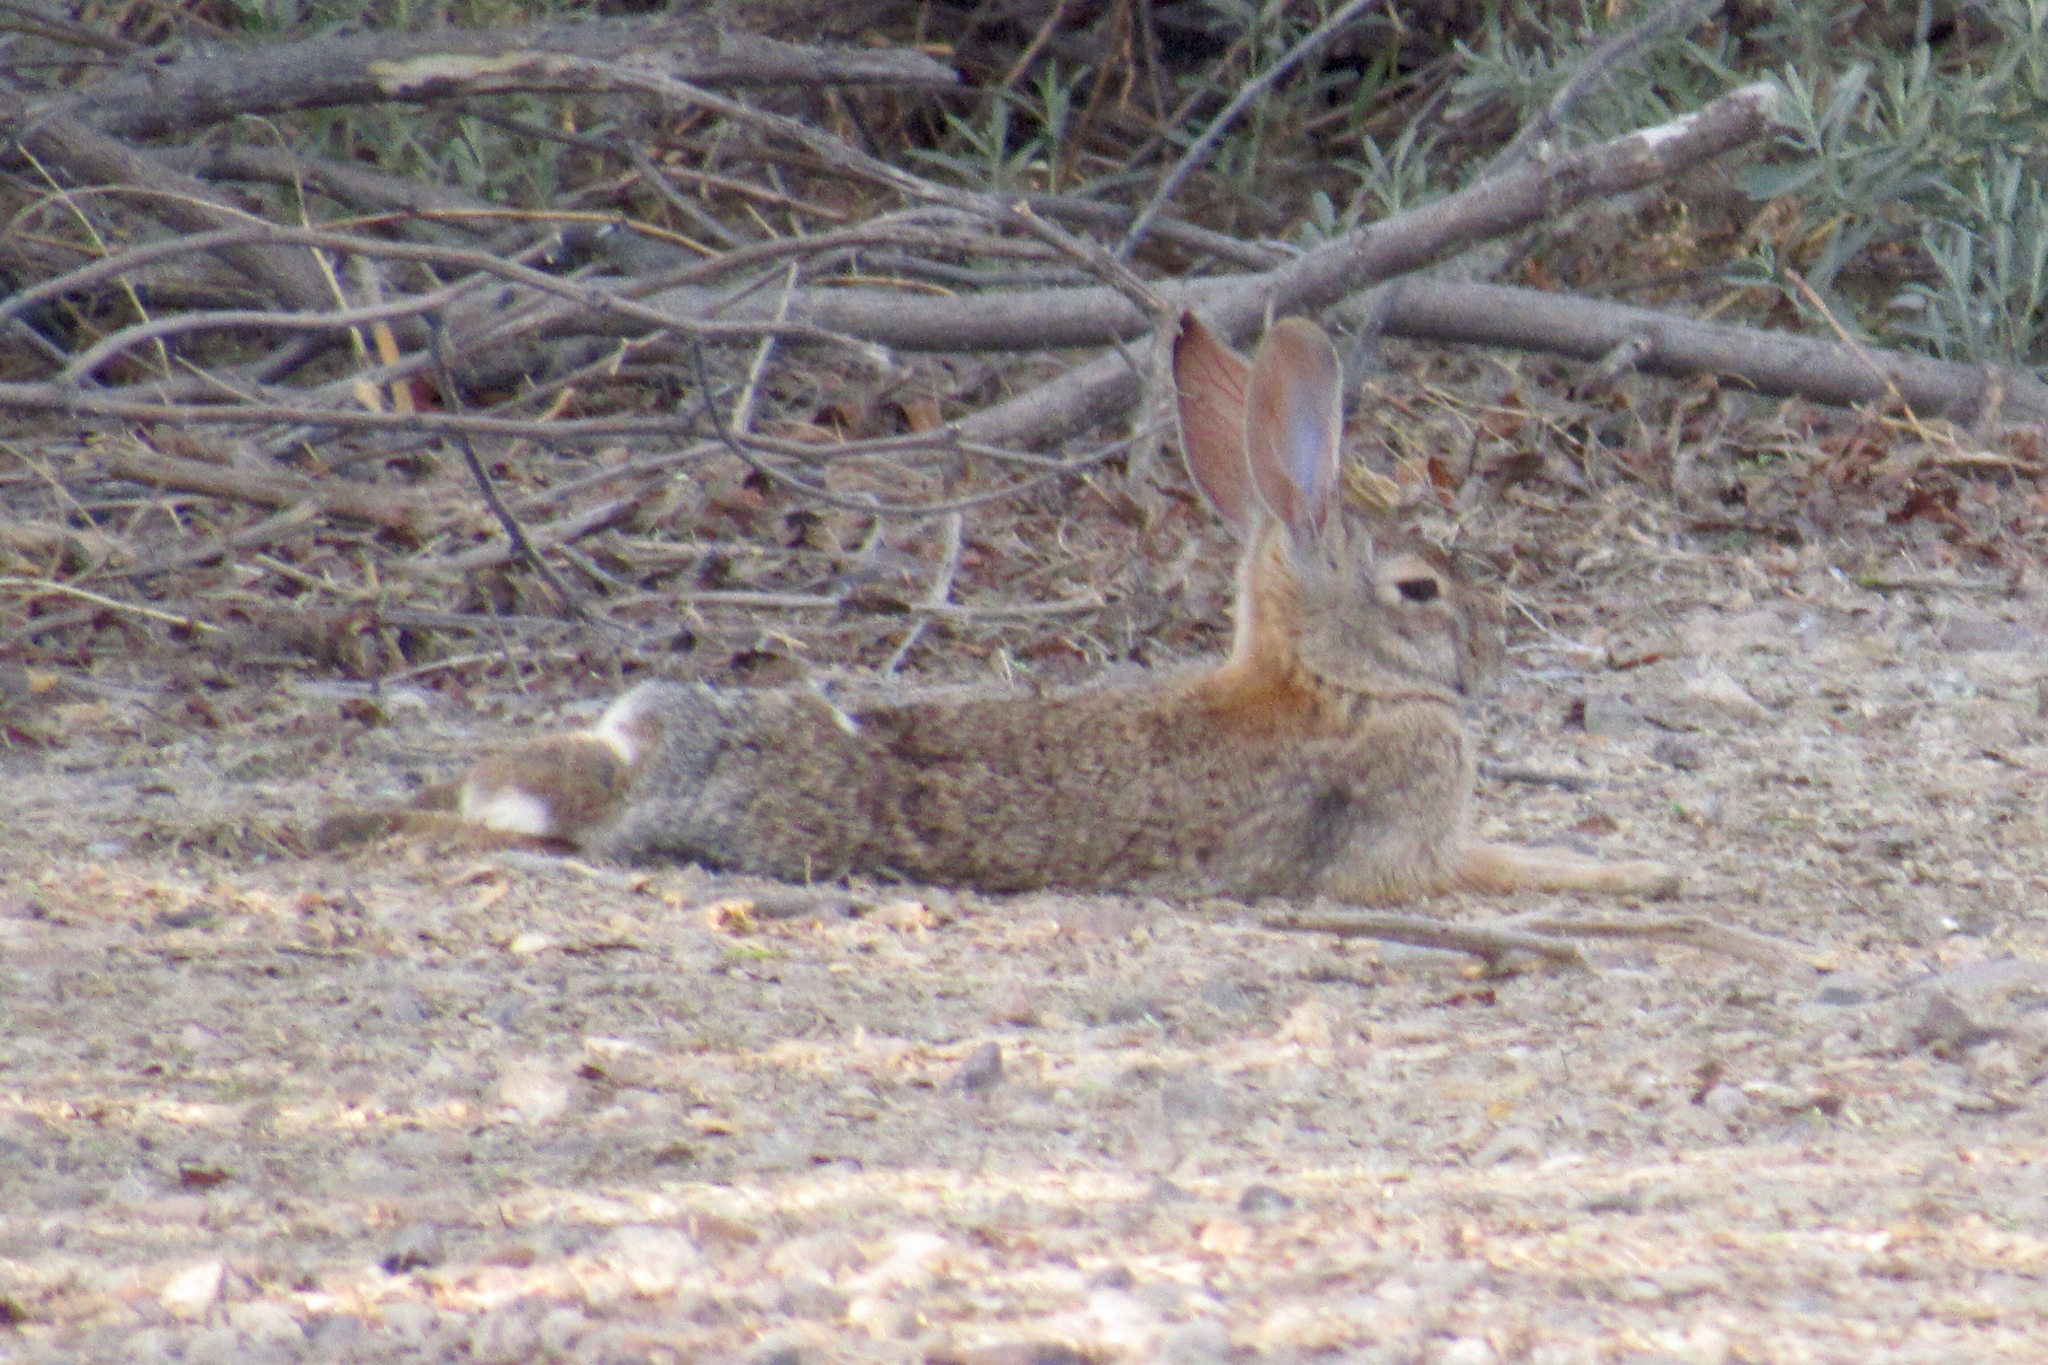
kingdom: Animalia
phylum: Chordata
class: Mammalia
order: Lagomorpha
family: Leporidae
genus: Sylvilagus
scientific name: Sylvilagus audubonii
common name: Desert cottontail
